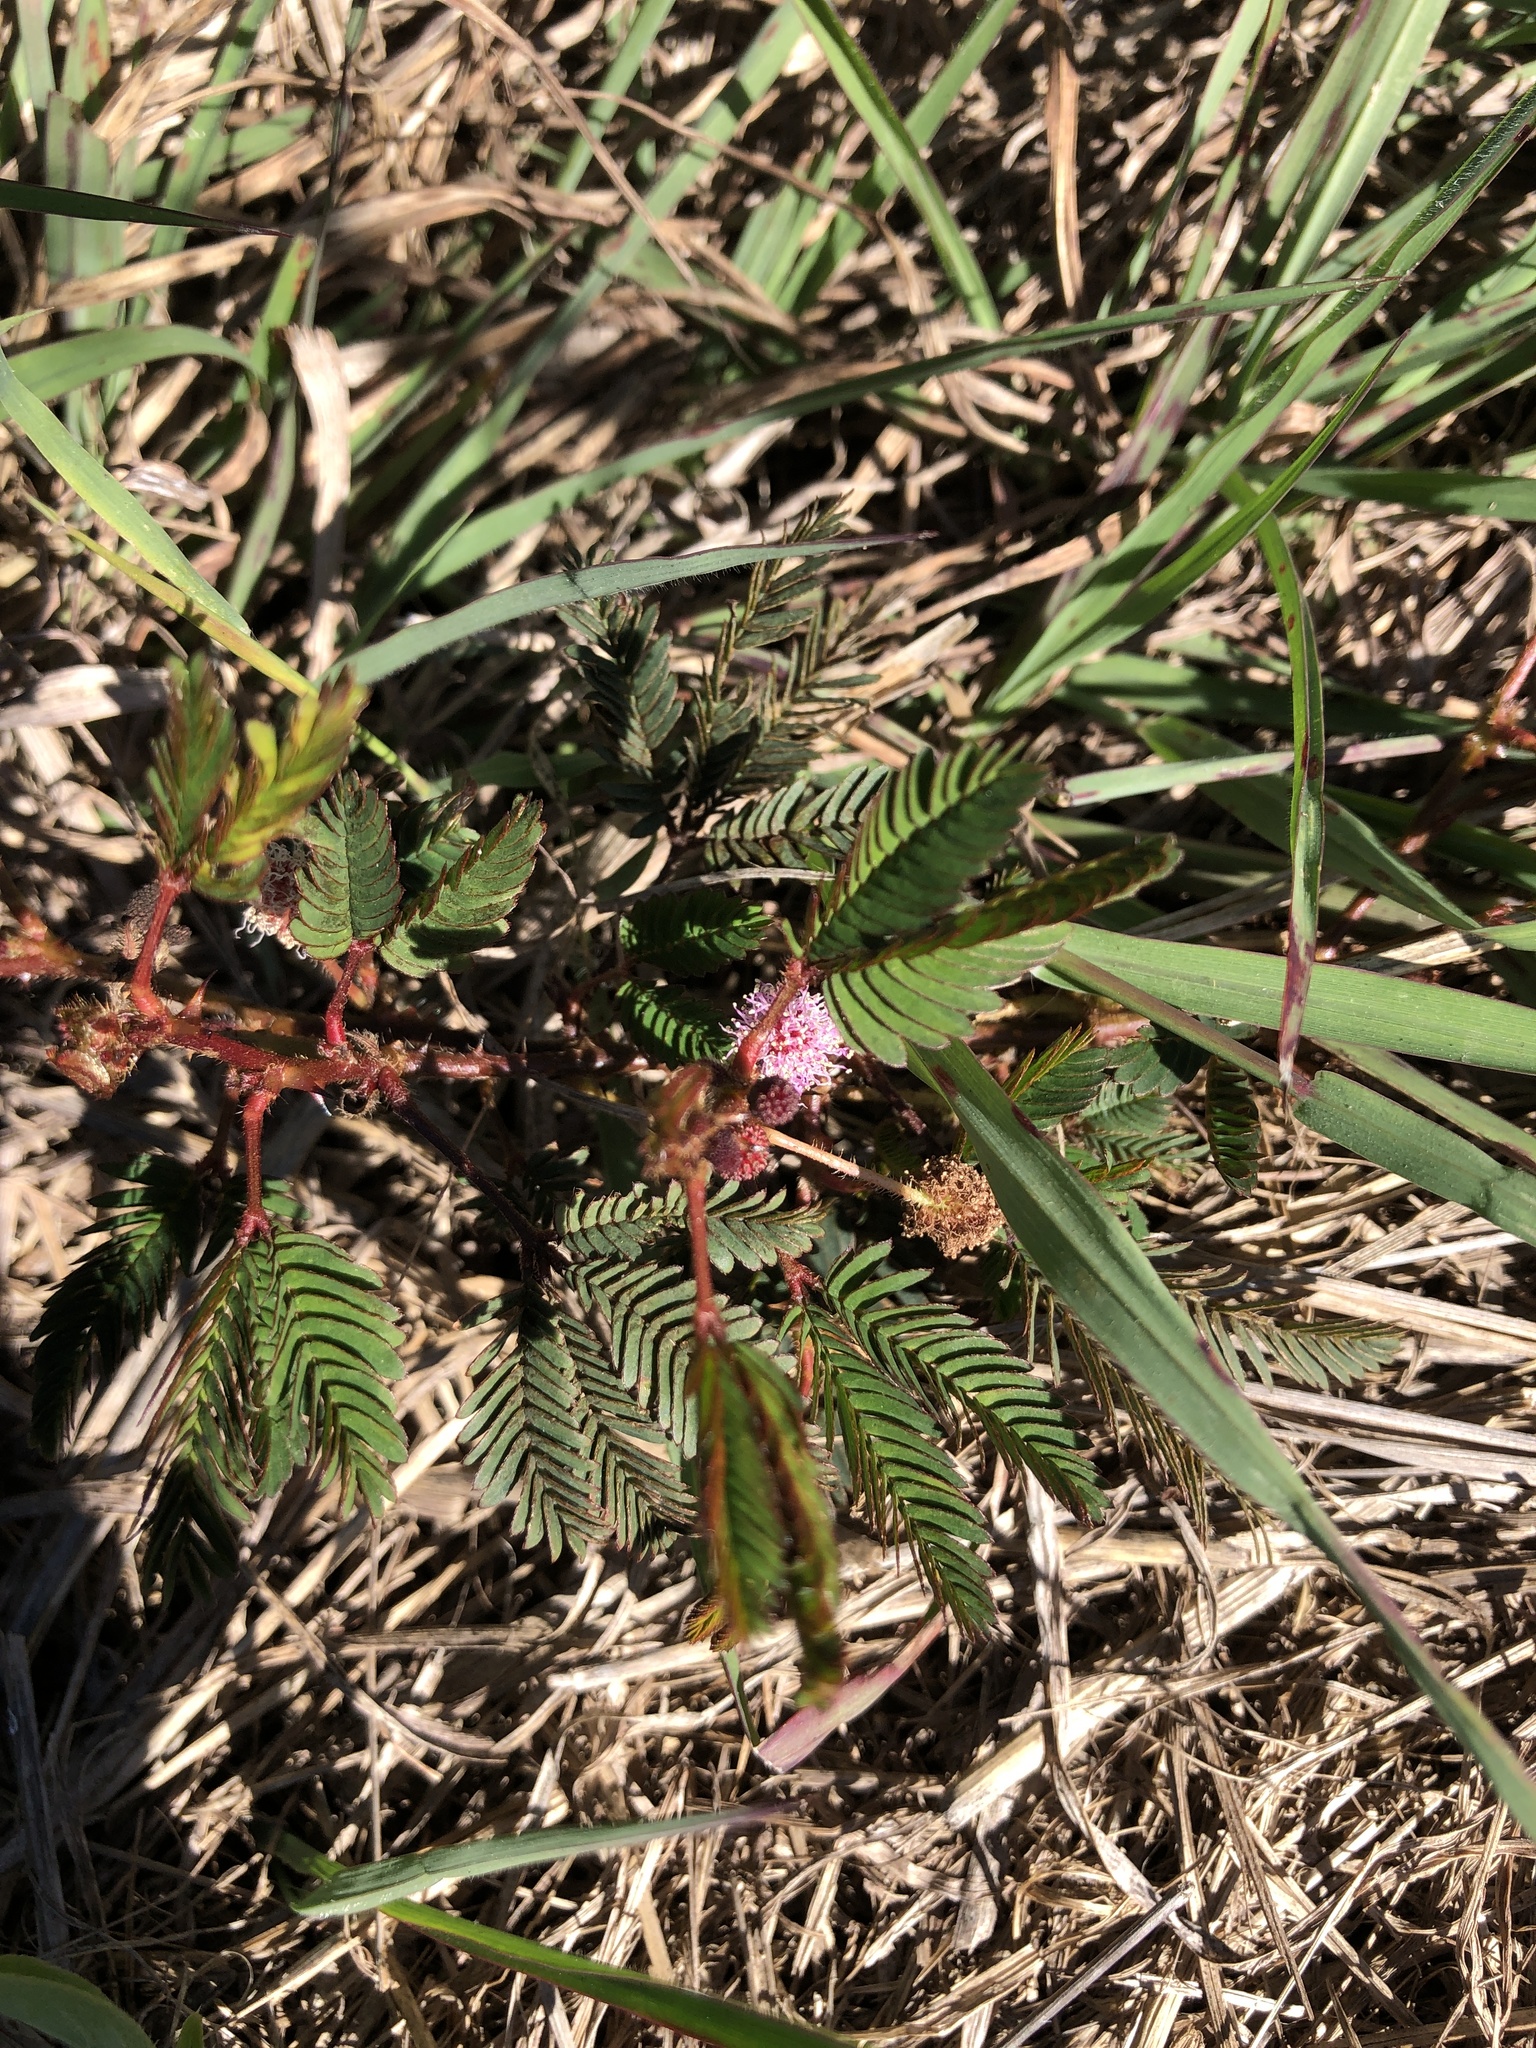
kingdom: Plantae
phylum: Tracheophyta
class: Magnoliopsida
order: Fabales
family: Fabaceae
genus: Mimosa
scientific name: Mimosa pudica
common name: Sensitive plant
